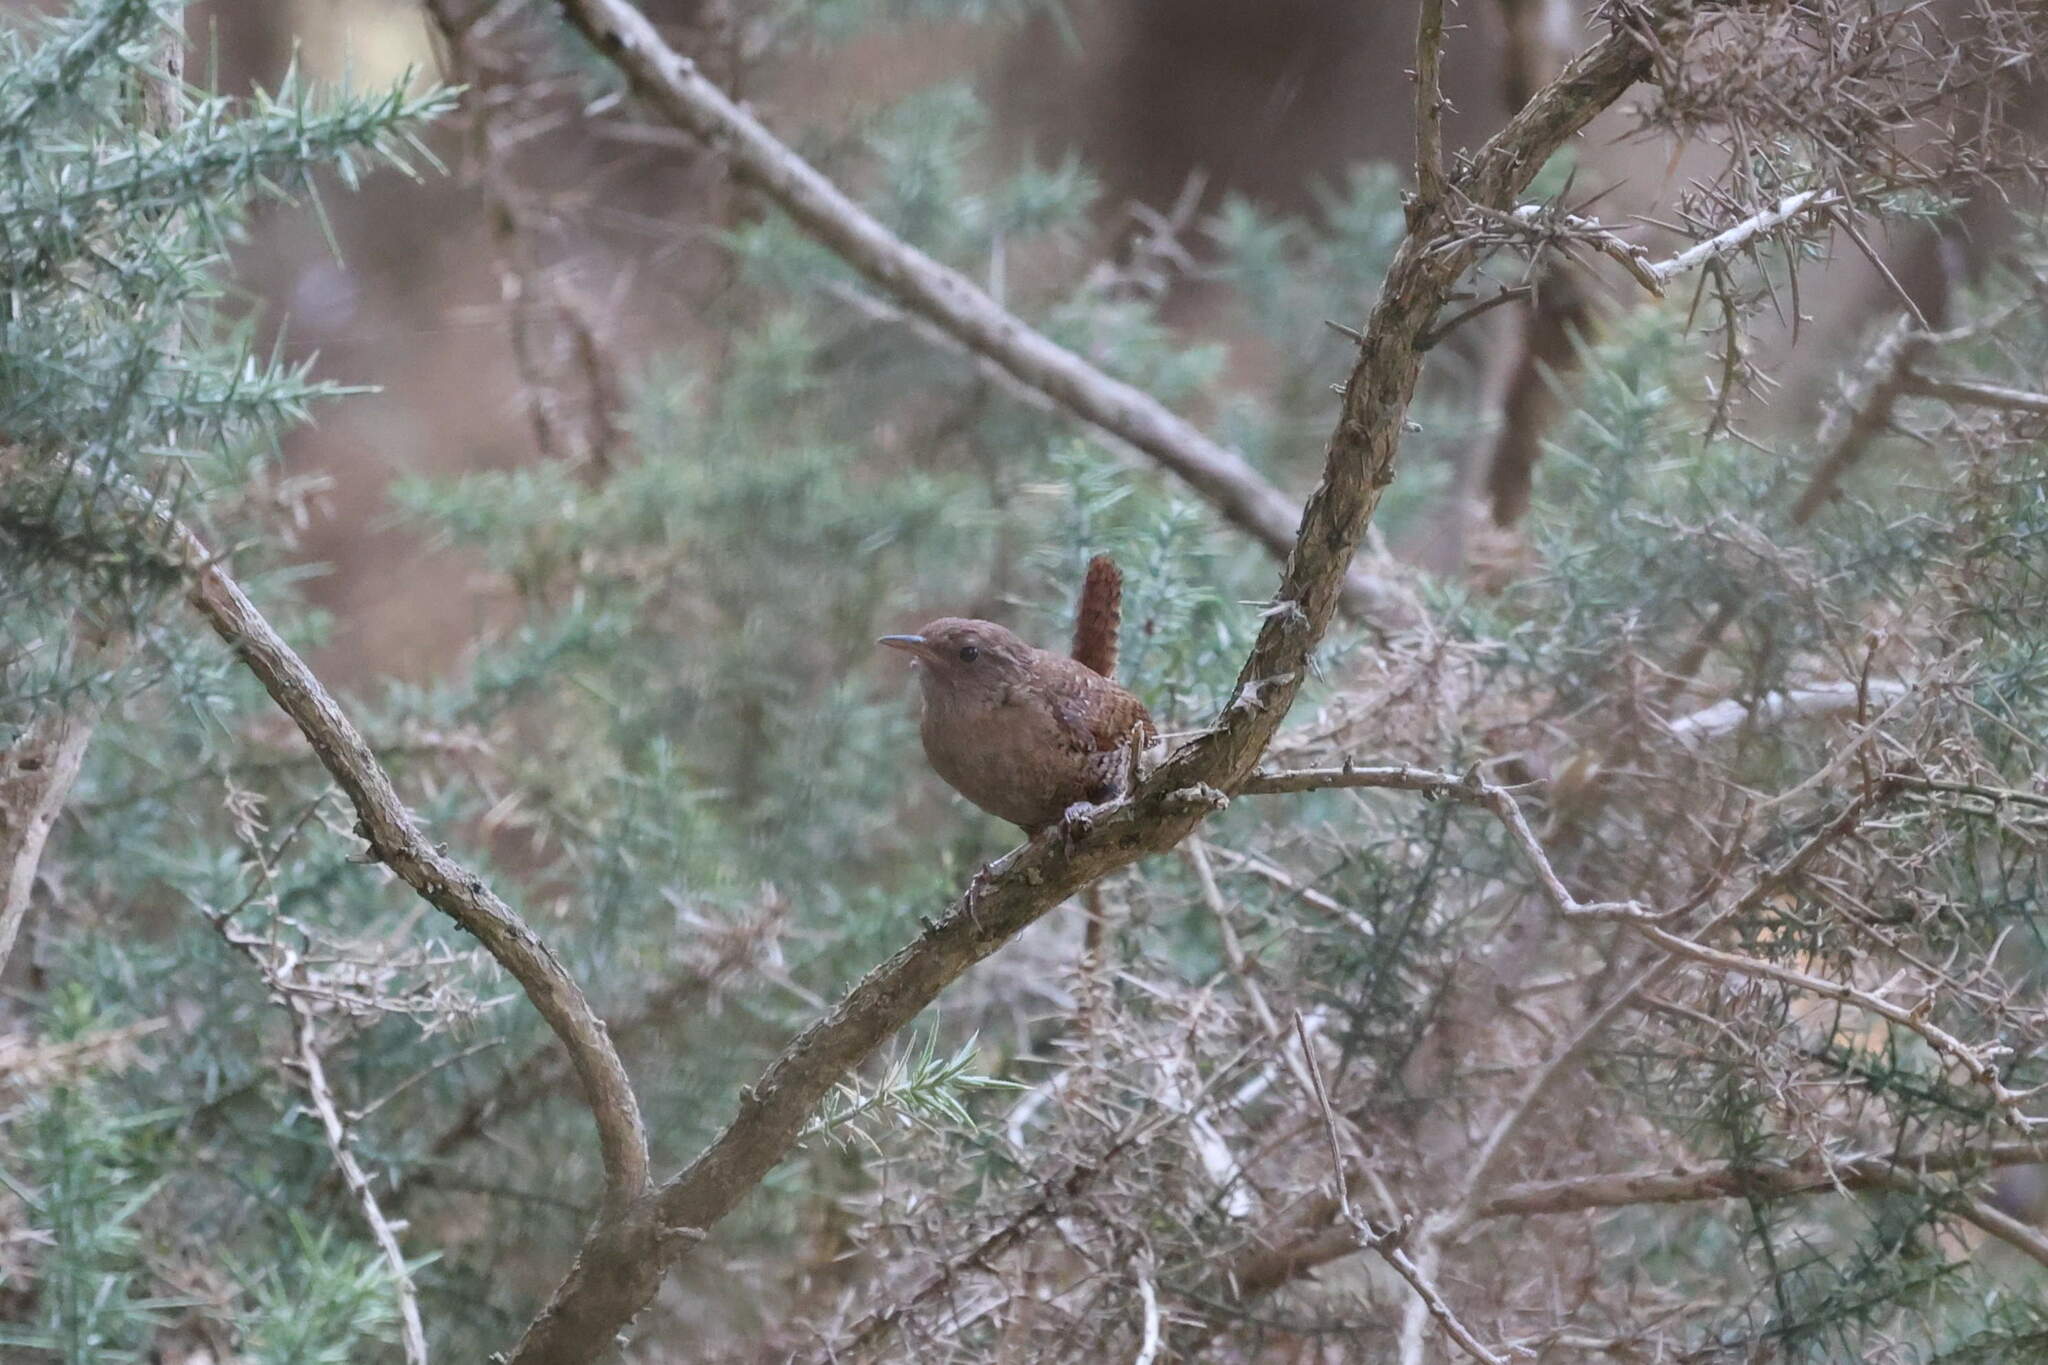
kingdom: Animalia
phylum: Chordata
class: Aves
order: Passeriformes
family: Troglodytidae
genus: Troglodytes
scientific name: Troglodytes troglodytes
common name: Eurasian wren
